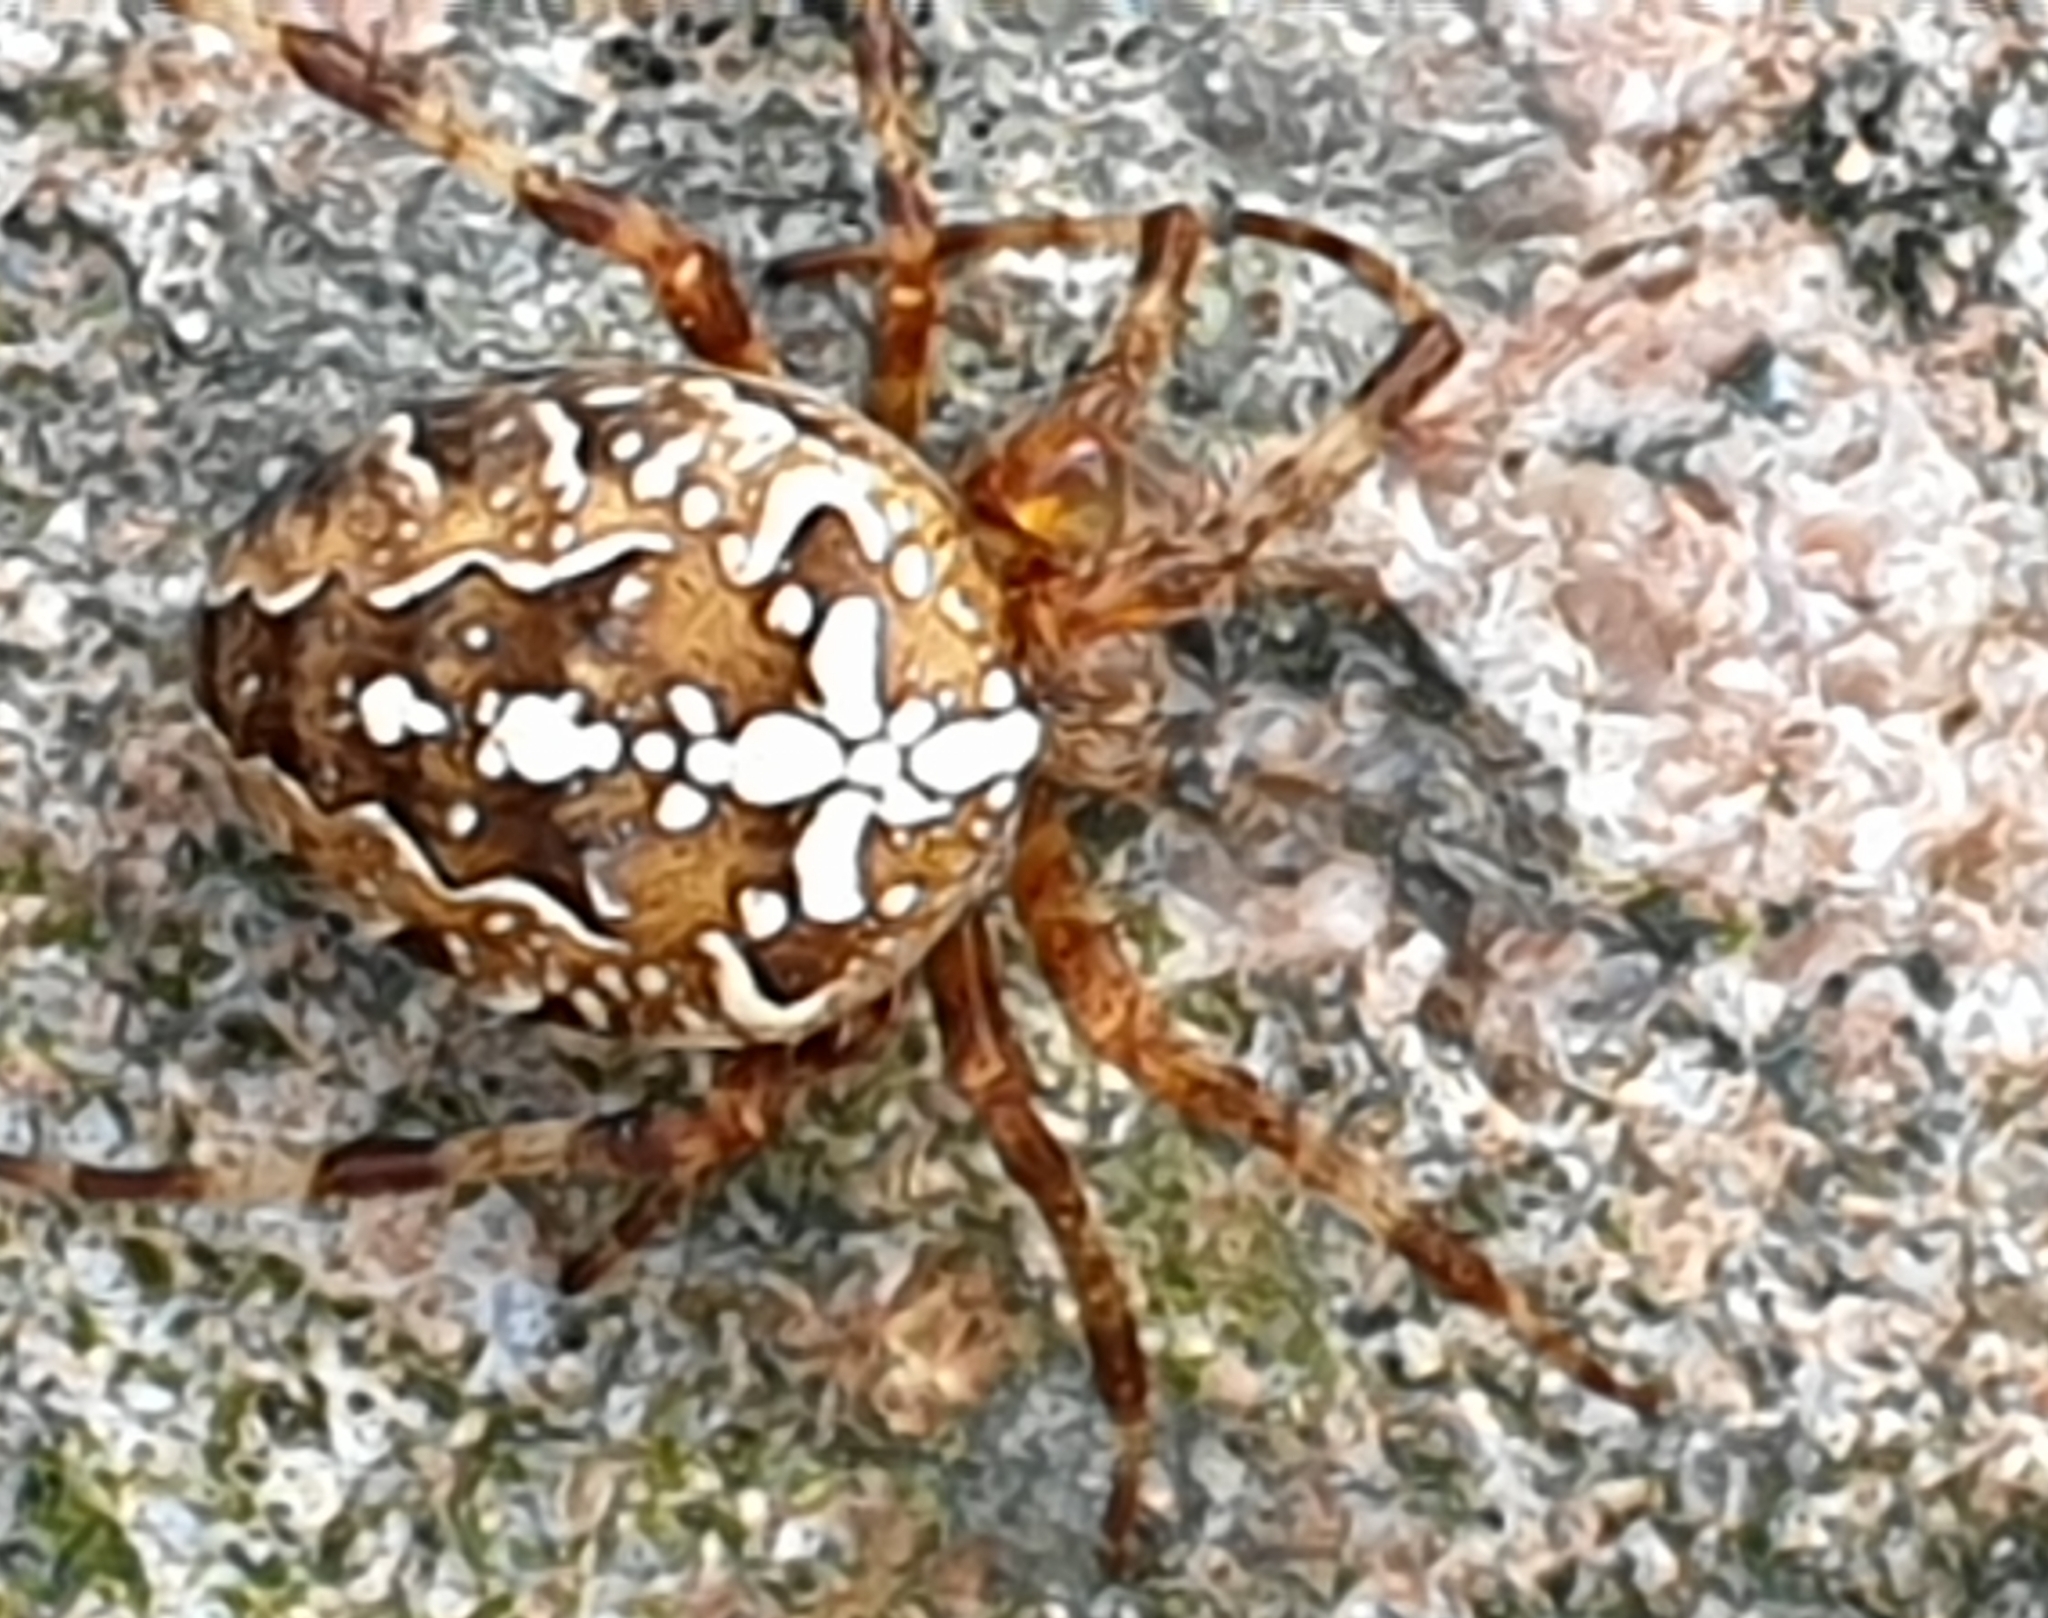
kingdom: Animalia
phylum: Arthropoda
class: Arachnida
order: Araneae
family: Araneidae
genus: Araneus
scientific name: Araneus diadematus
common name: Cross orbweaver
